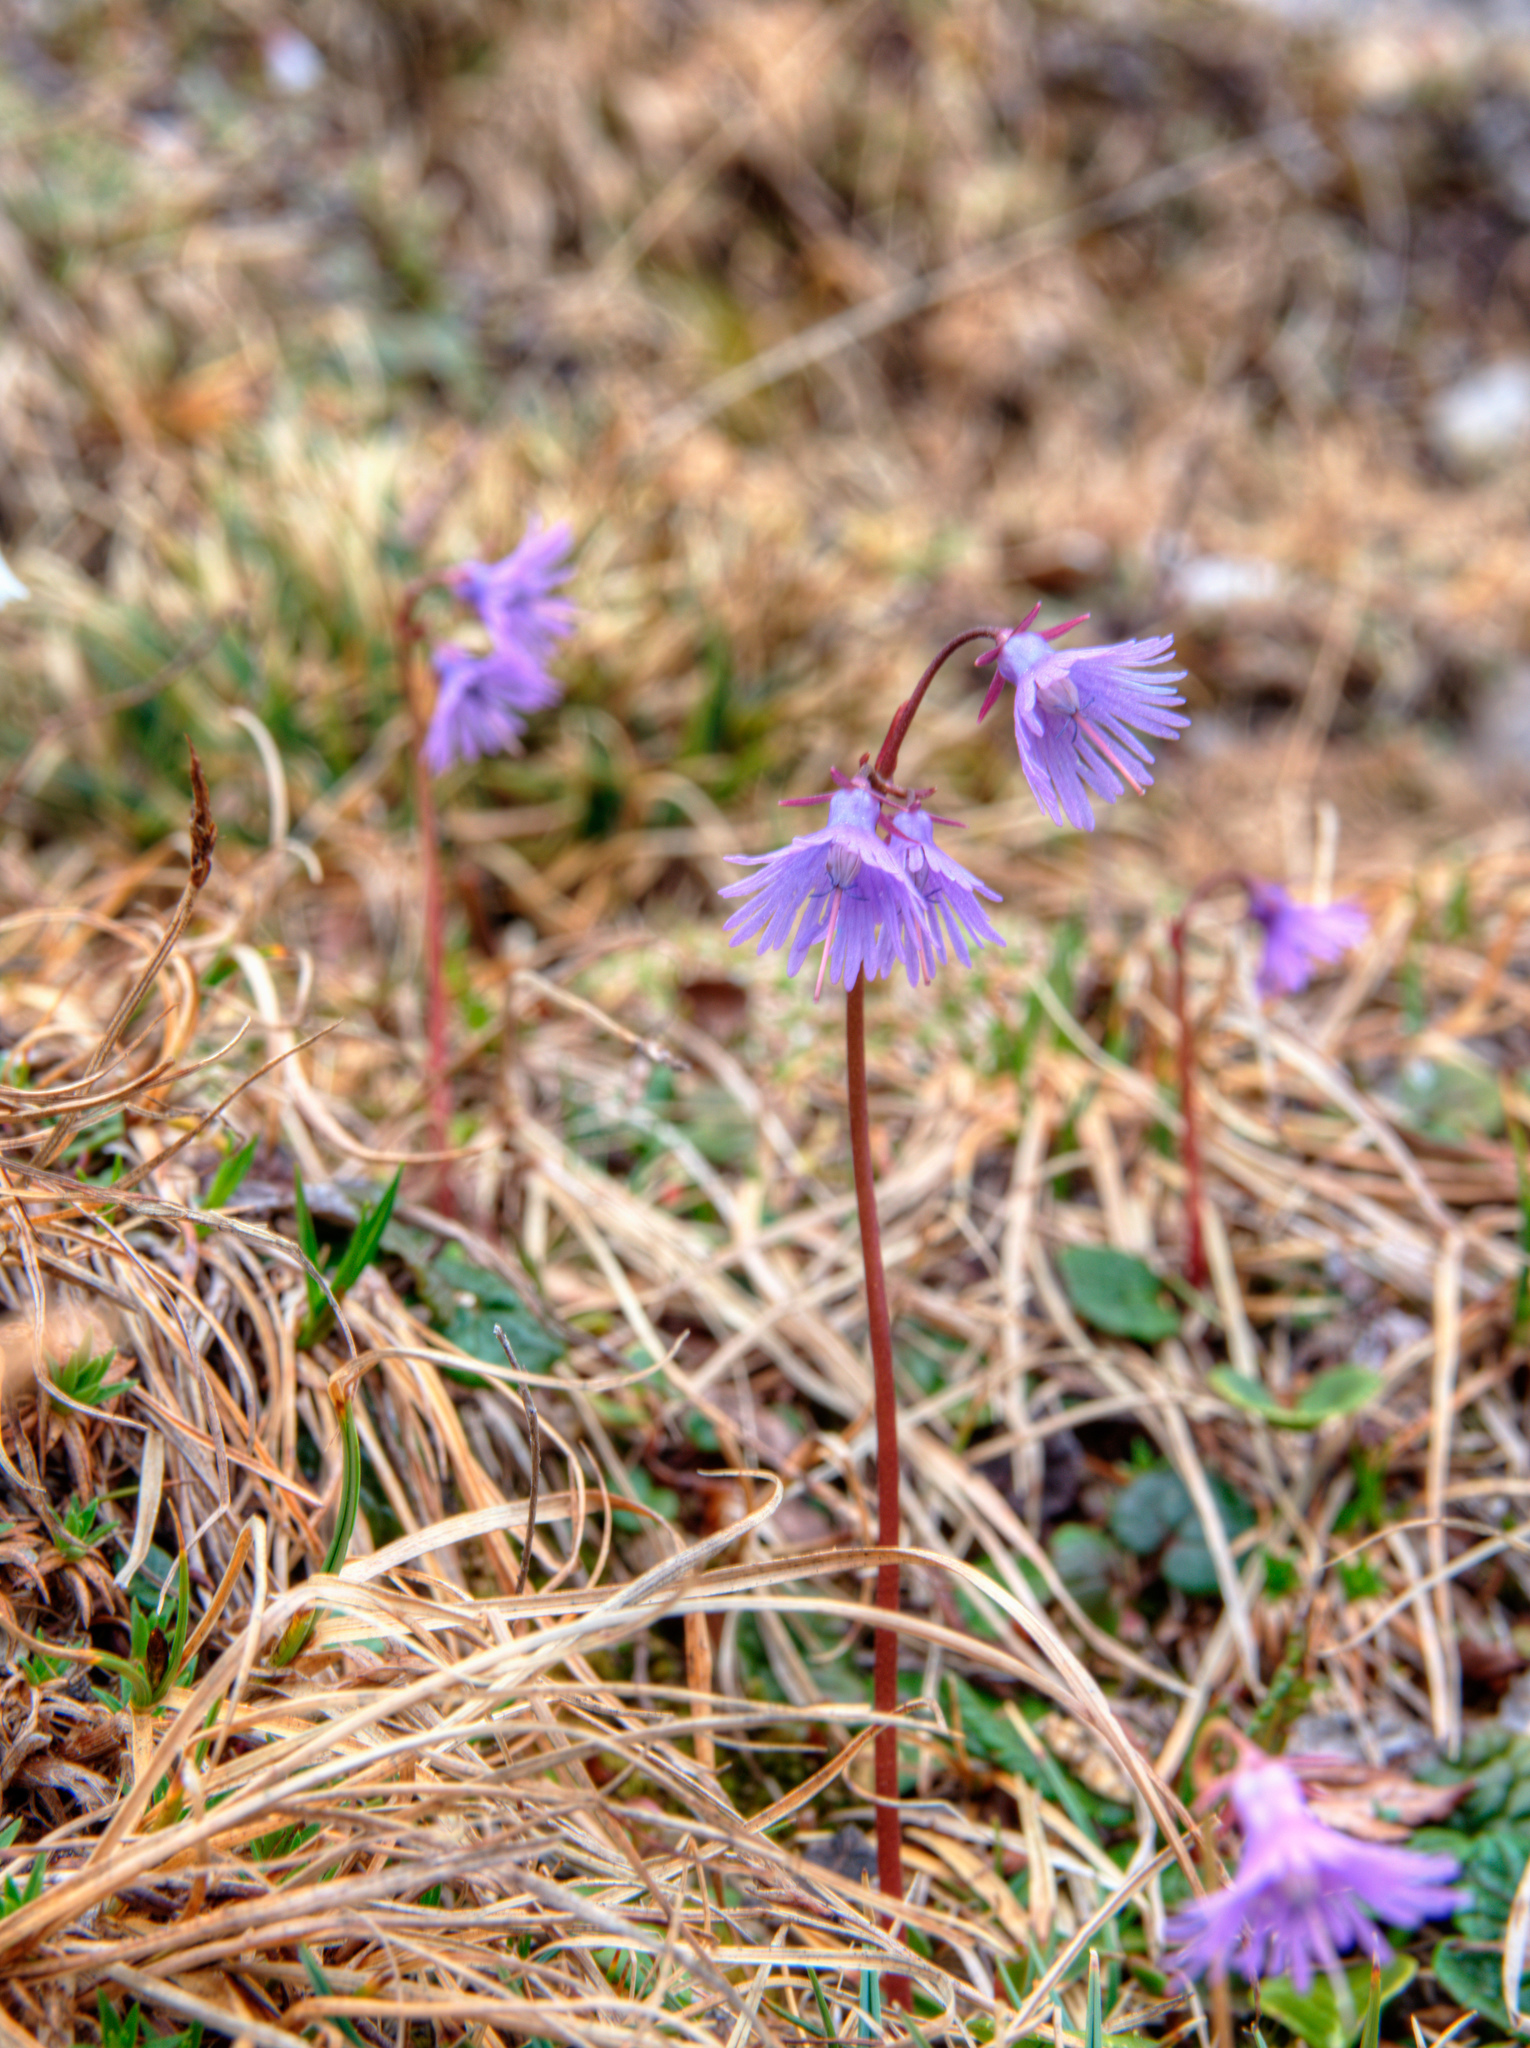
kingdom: Plantae
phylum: Tracheophyta
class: Magnoliopsida
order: Ericales
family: Primulaceae
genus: Soldanella
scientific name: Soldanella alpina
